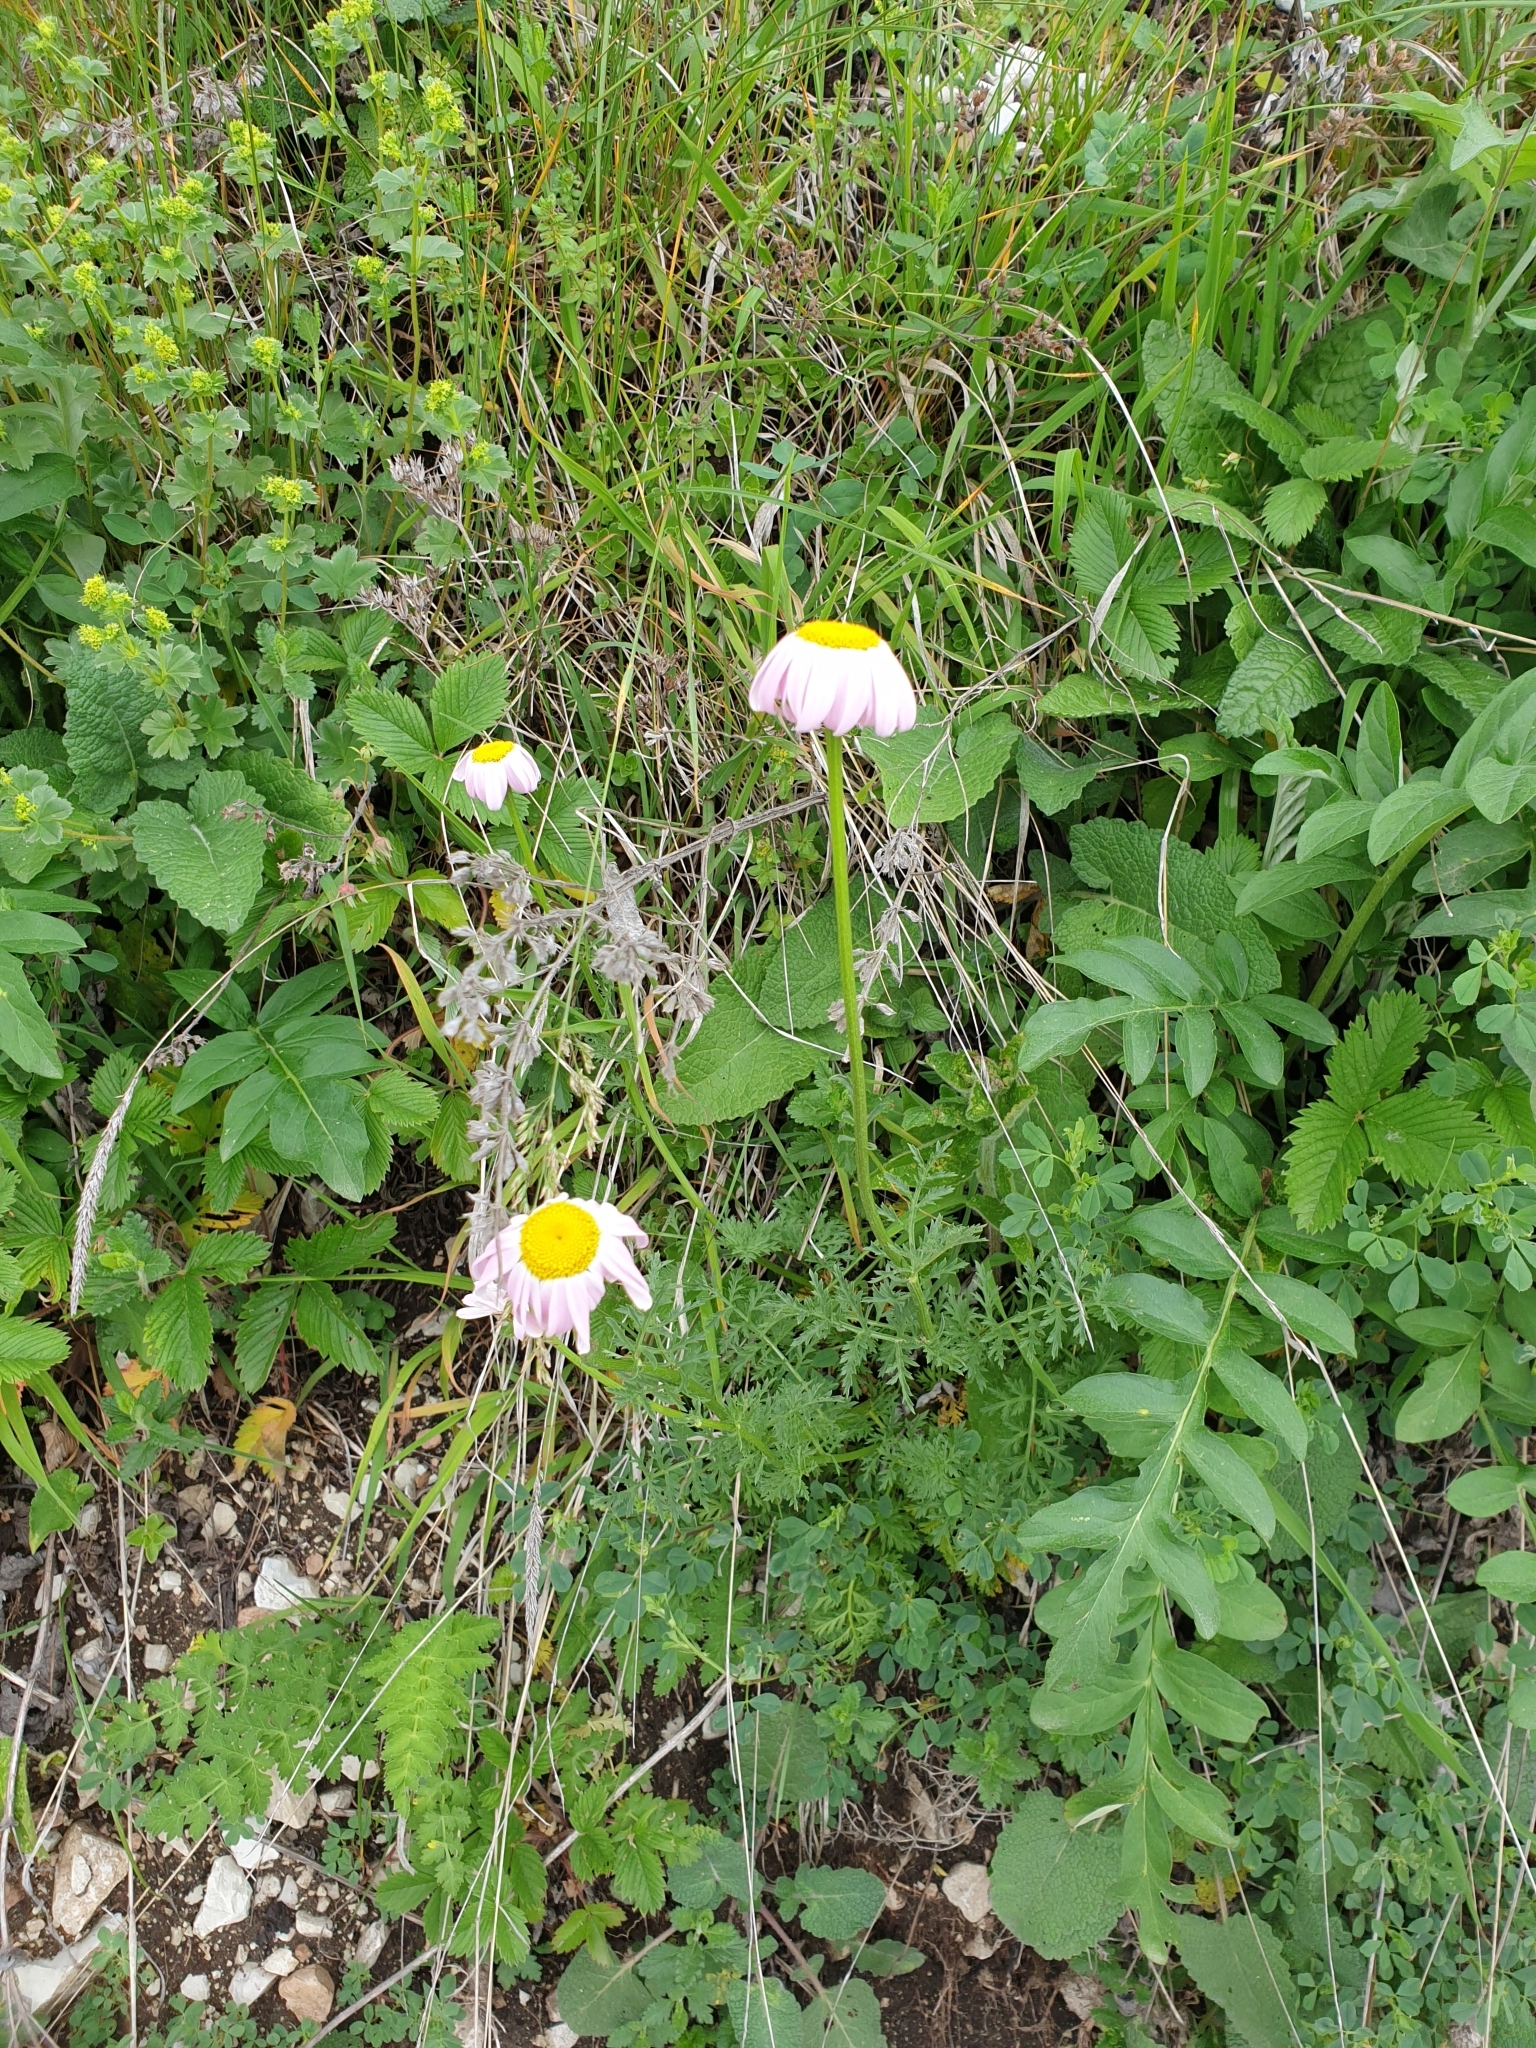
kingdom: Plantae
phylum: Tracheophyta
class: Magnoliopsida
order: Asterales
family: Asteraceae
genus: Tanacetum
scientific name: Tanacetum coccineum
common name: Pyrethum daisy
